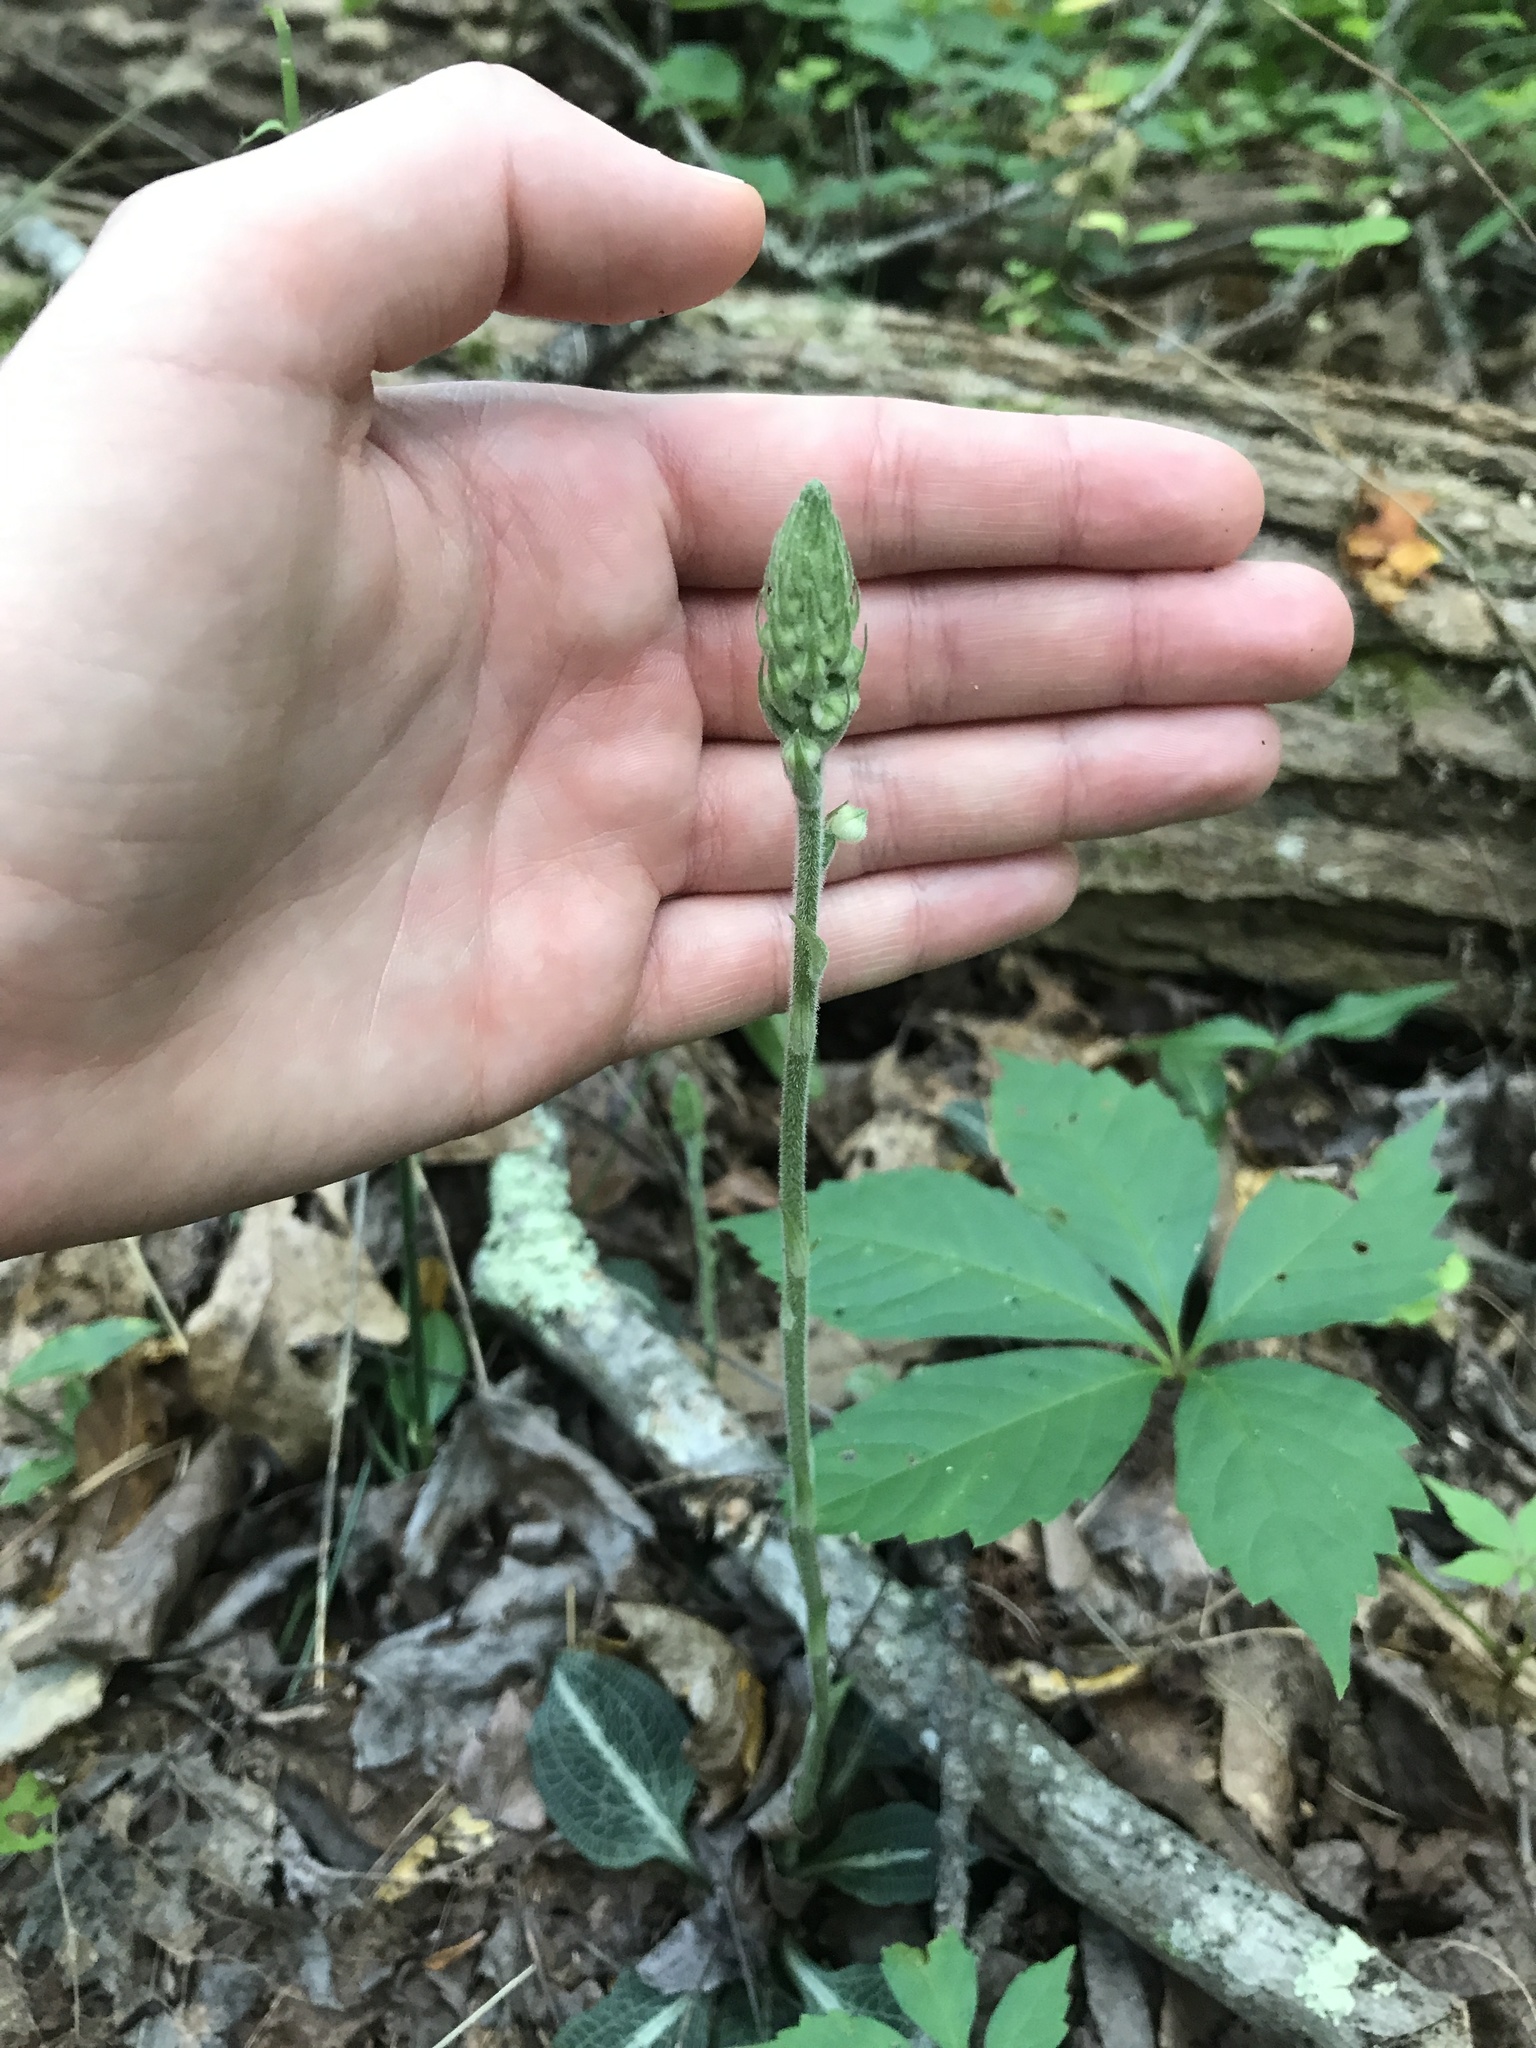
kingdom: Plantae
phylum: Tracheophyta
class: Liliopsida
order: Asparagales
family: Orchidaceae
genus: Goodyera
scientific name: Goodyera pubescens
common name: Downy rattlesnake-plantain
